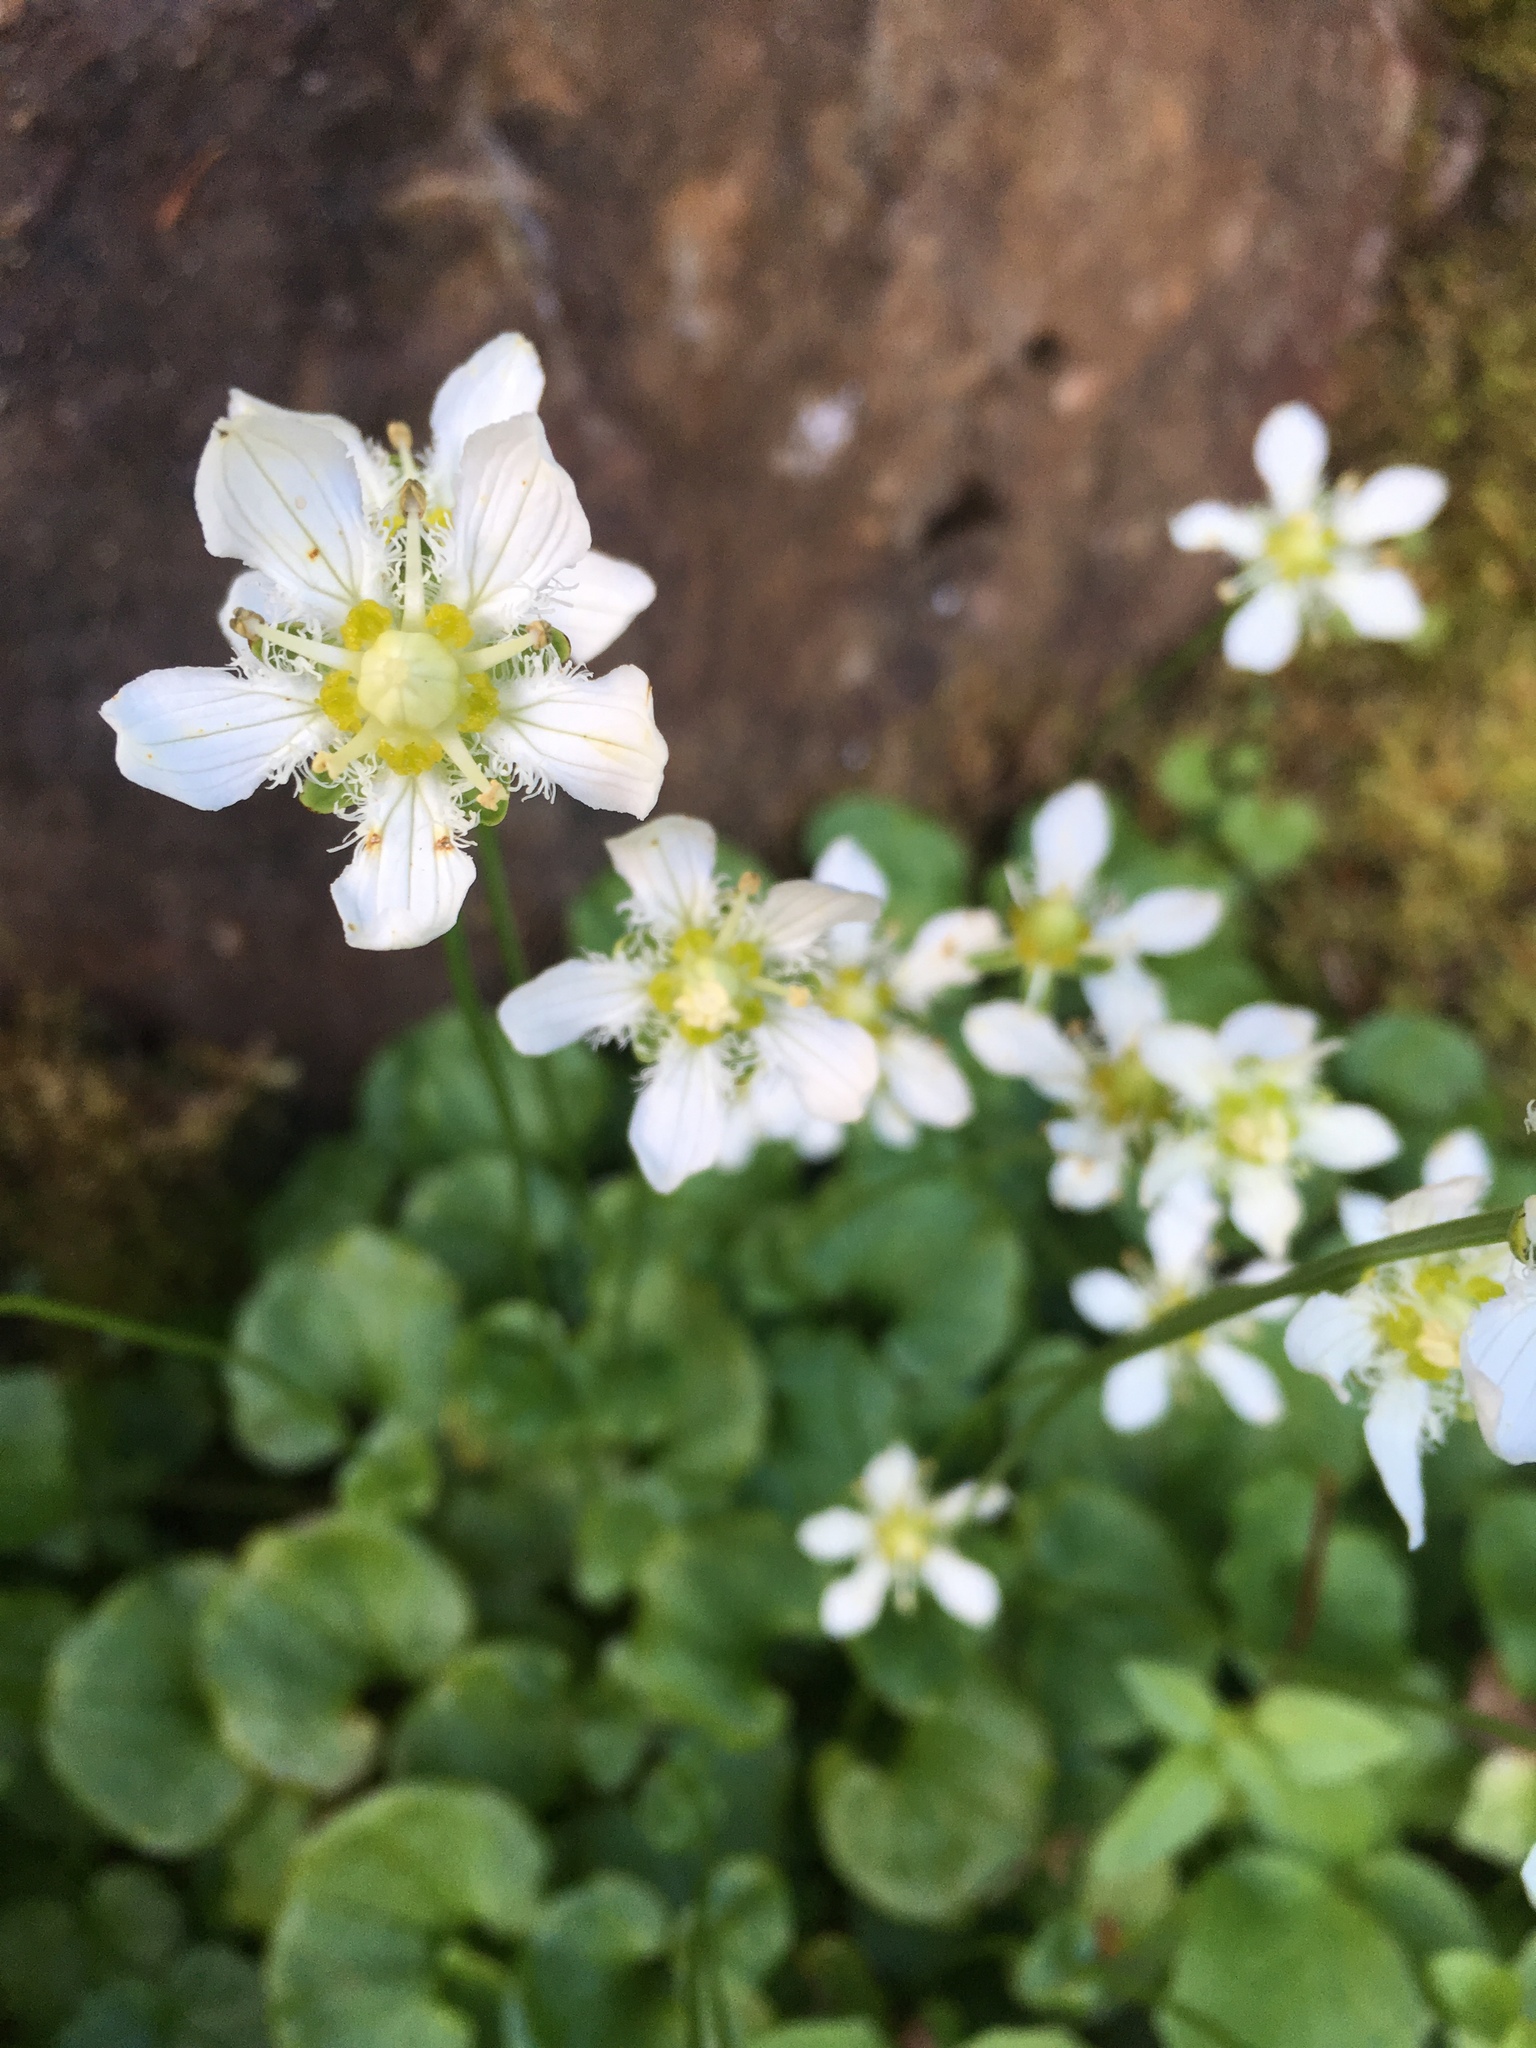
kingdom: Plantae
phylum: Tracheophyta
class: Magnoliopsida
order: Celastrales
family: Parnassiaceae
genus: Parnassia
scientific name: Parnassia fimbriata
